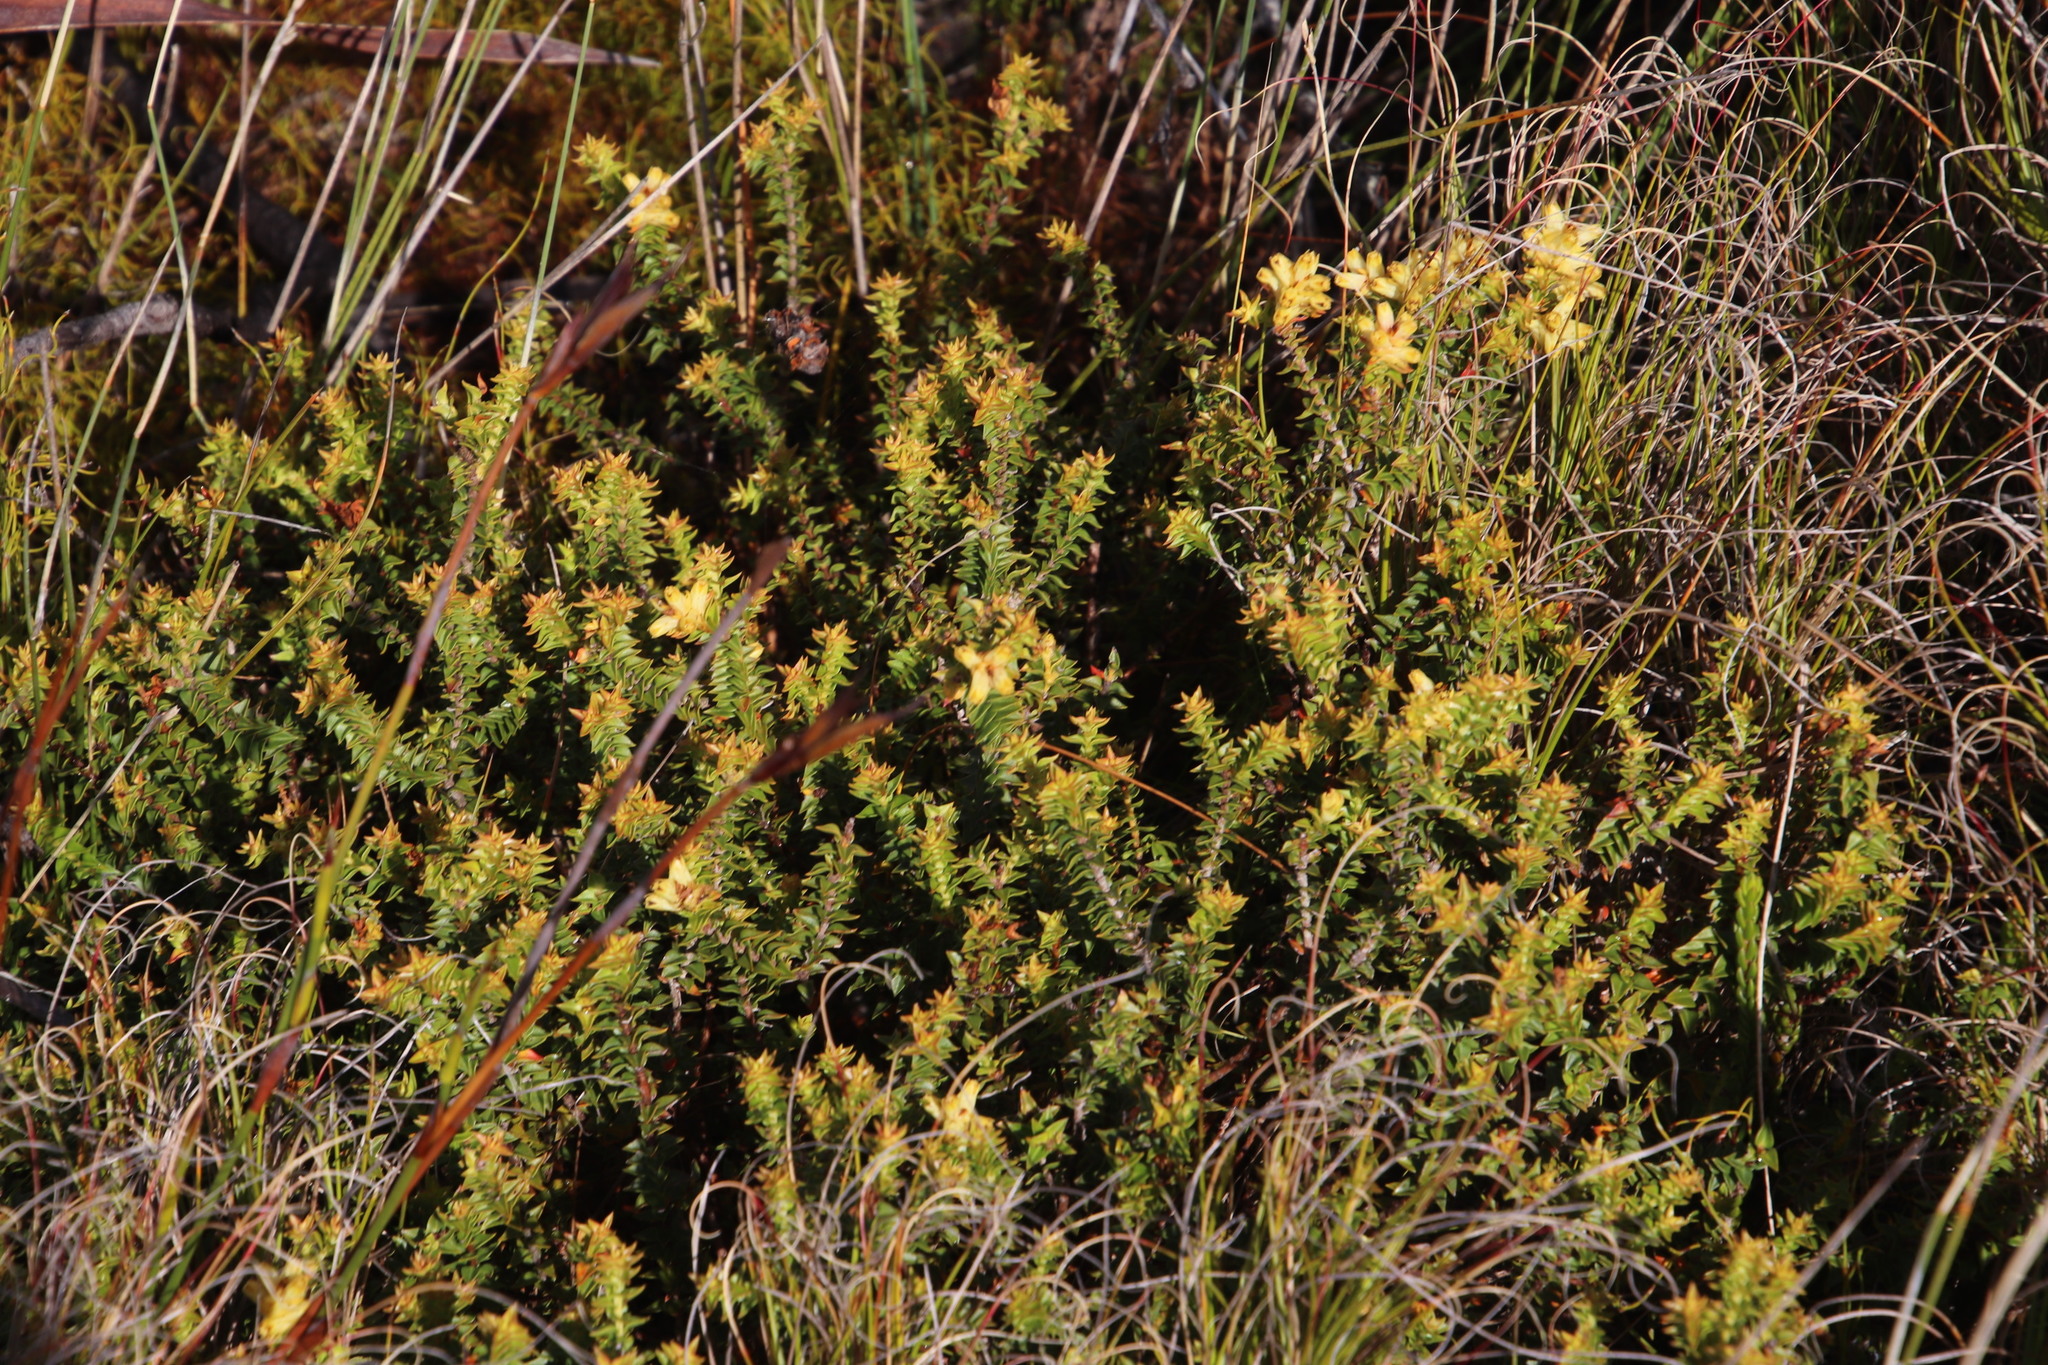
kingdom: Plantae
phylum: Tracheophyta
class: Magnoliopsida
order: Myrtales
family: Penaeaceae
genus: Penaea
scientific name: Penaea mucronata
